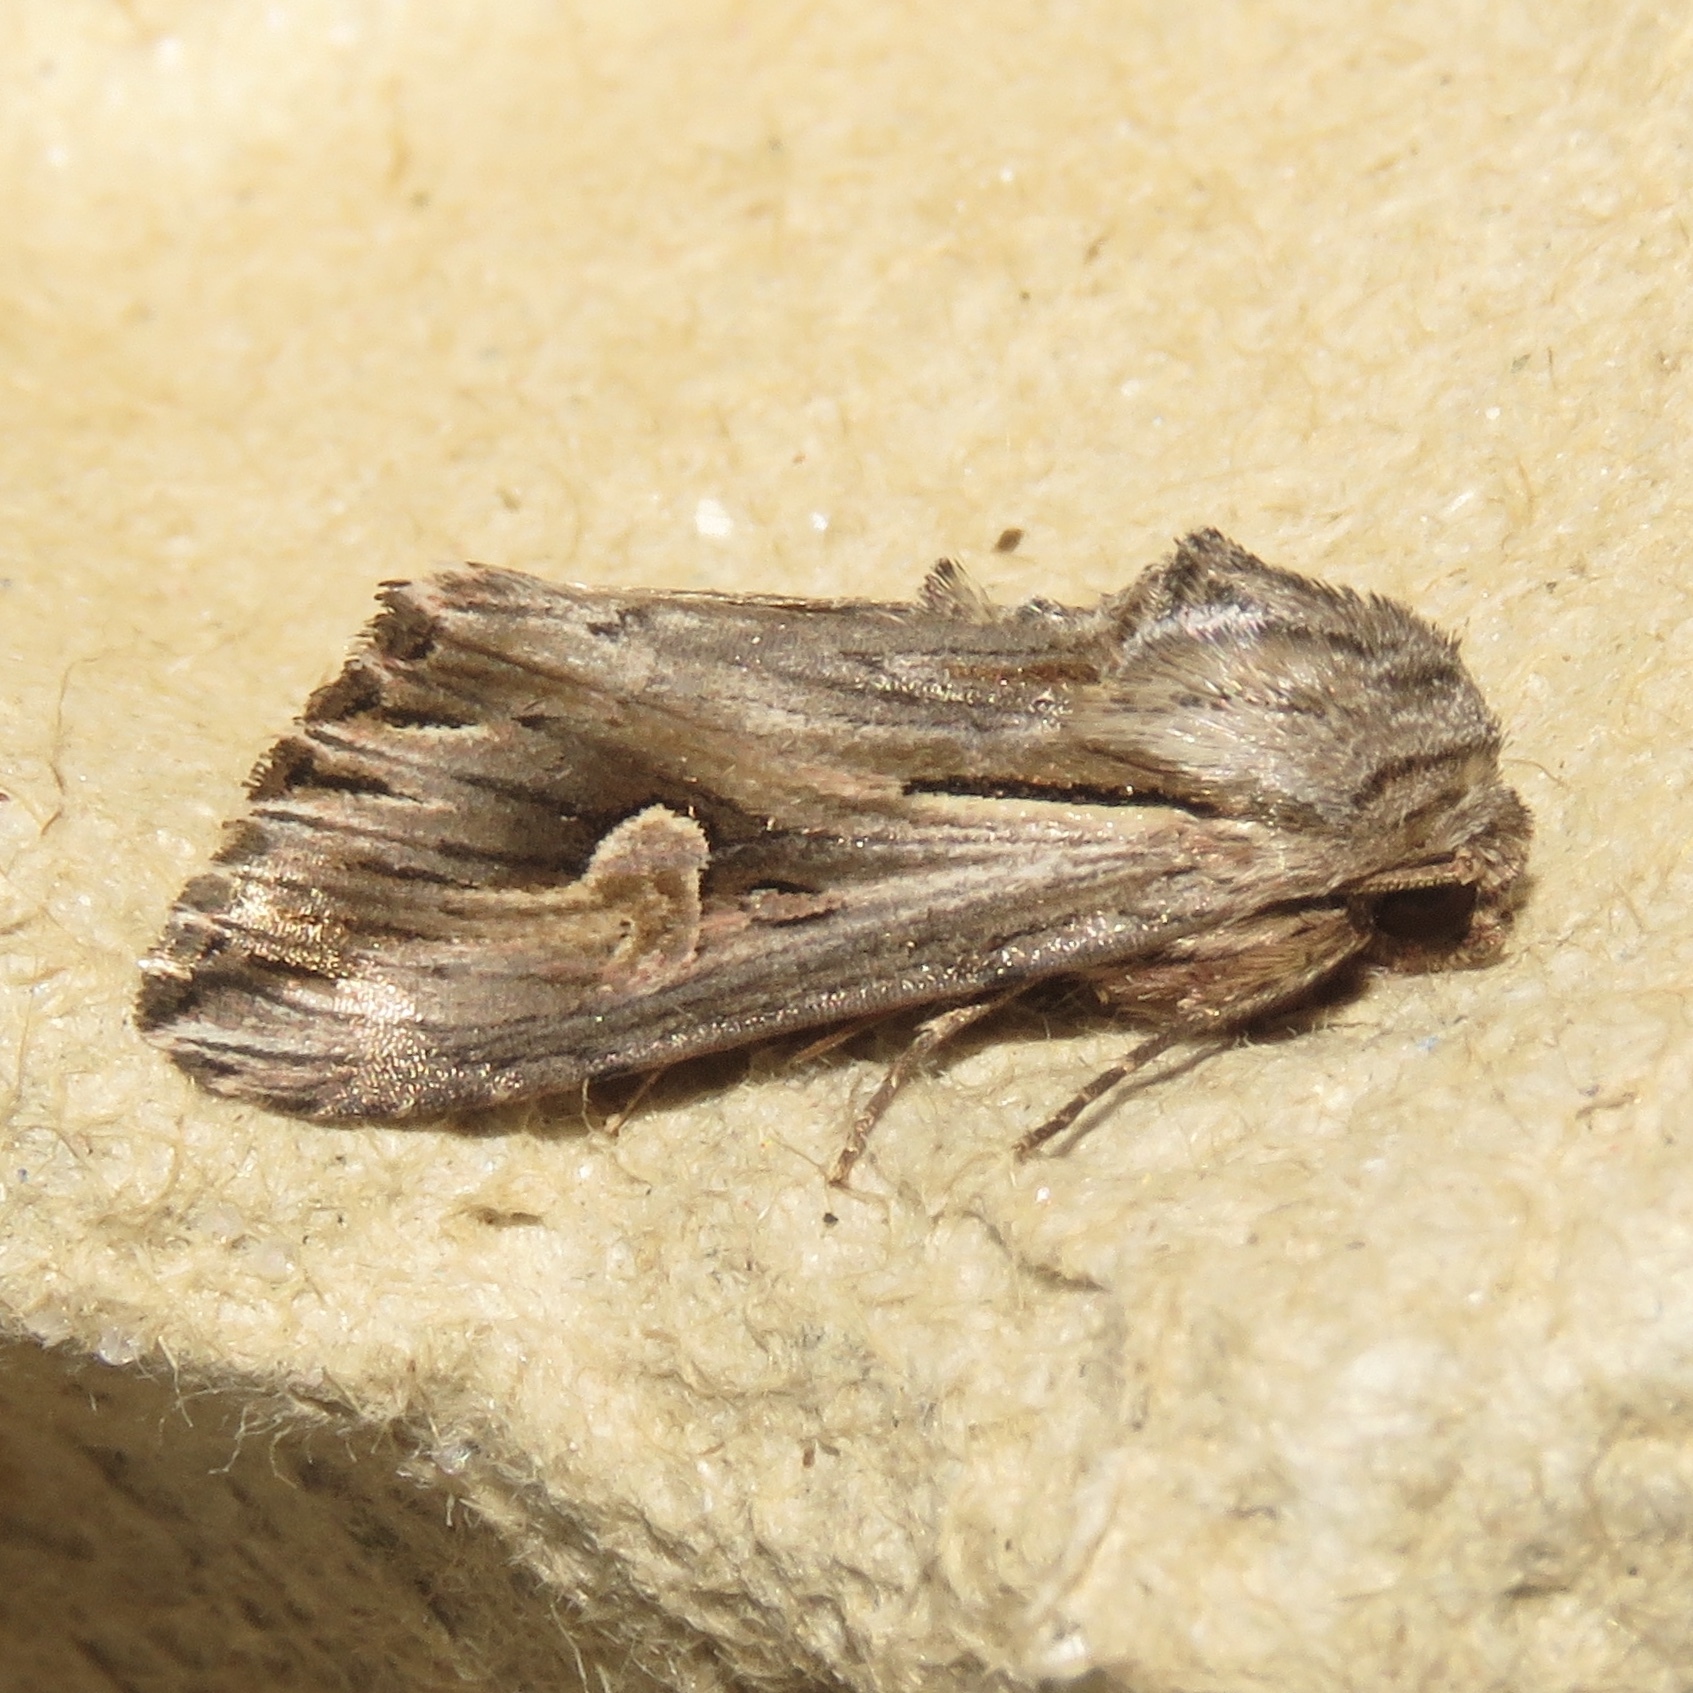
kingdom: Animalia
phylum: Arthropoda
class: Insecta
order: Lepidoptera
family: Noctuidae
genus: Nedra
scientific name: Nedra ramosula
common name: Gray half-spot
